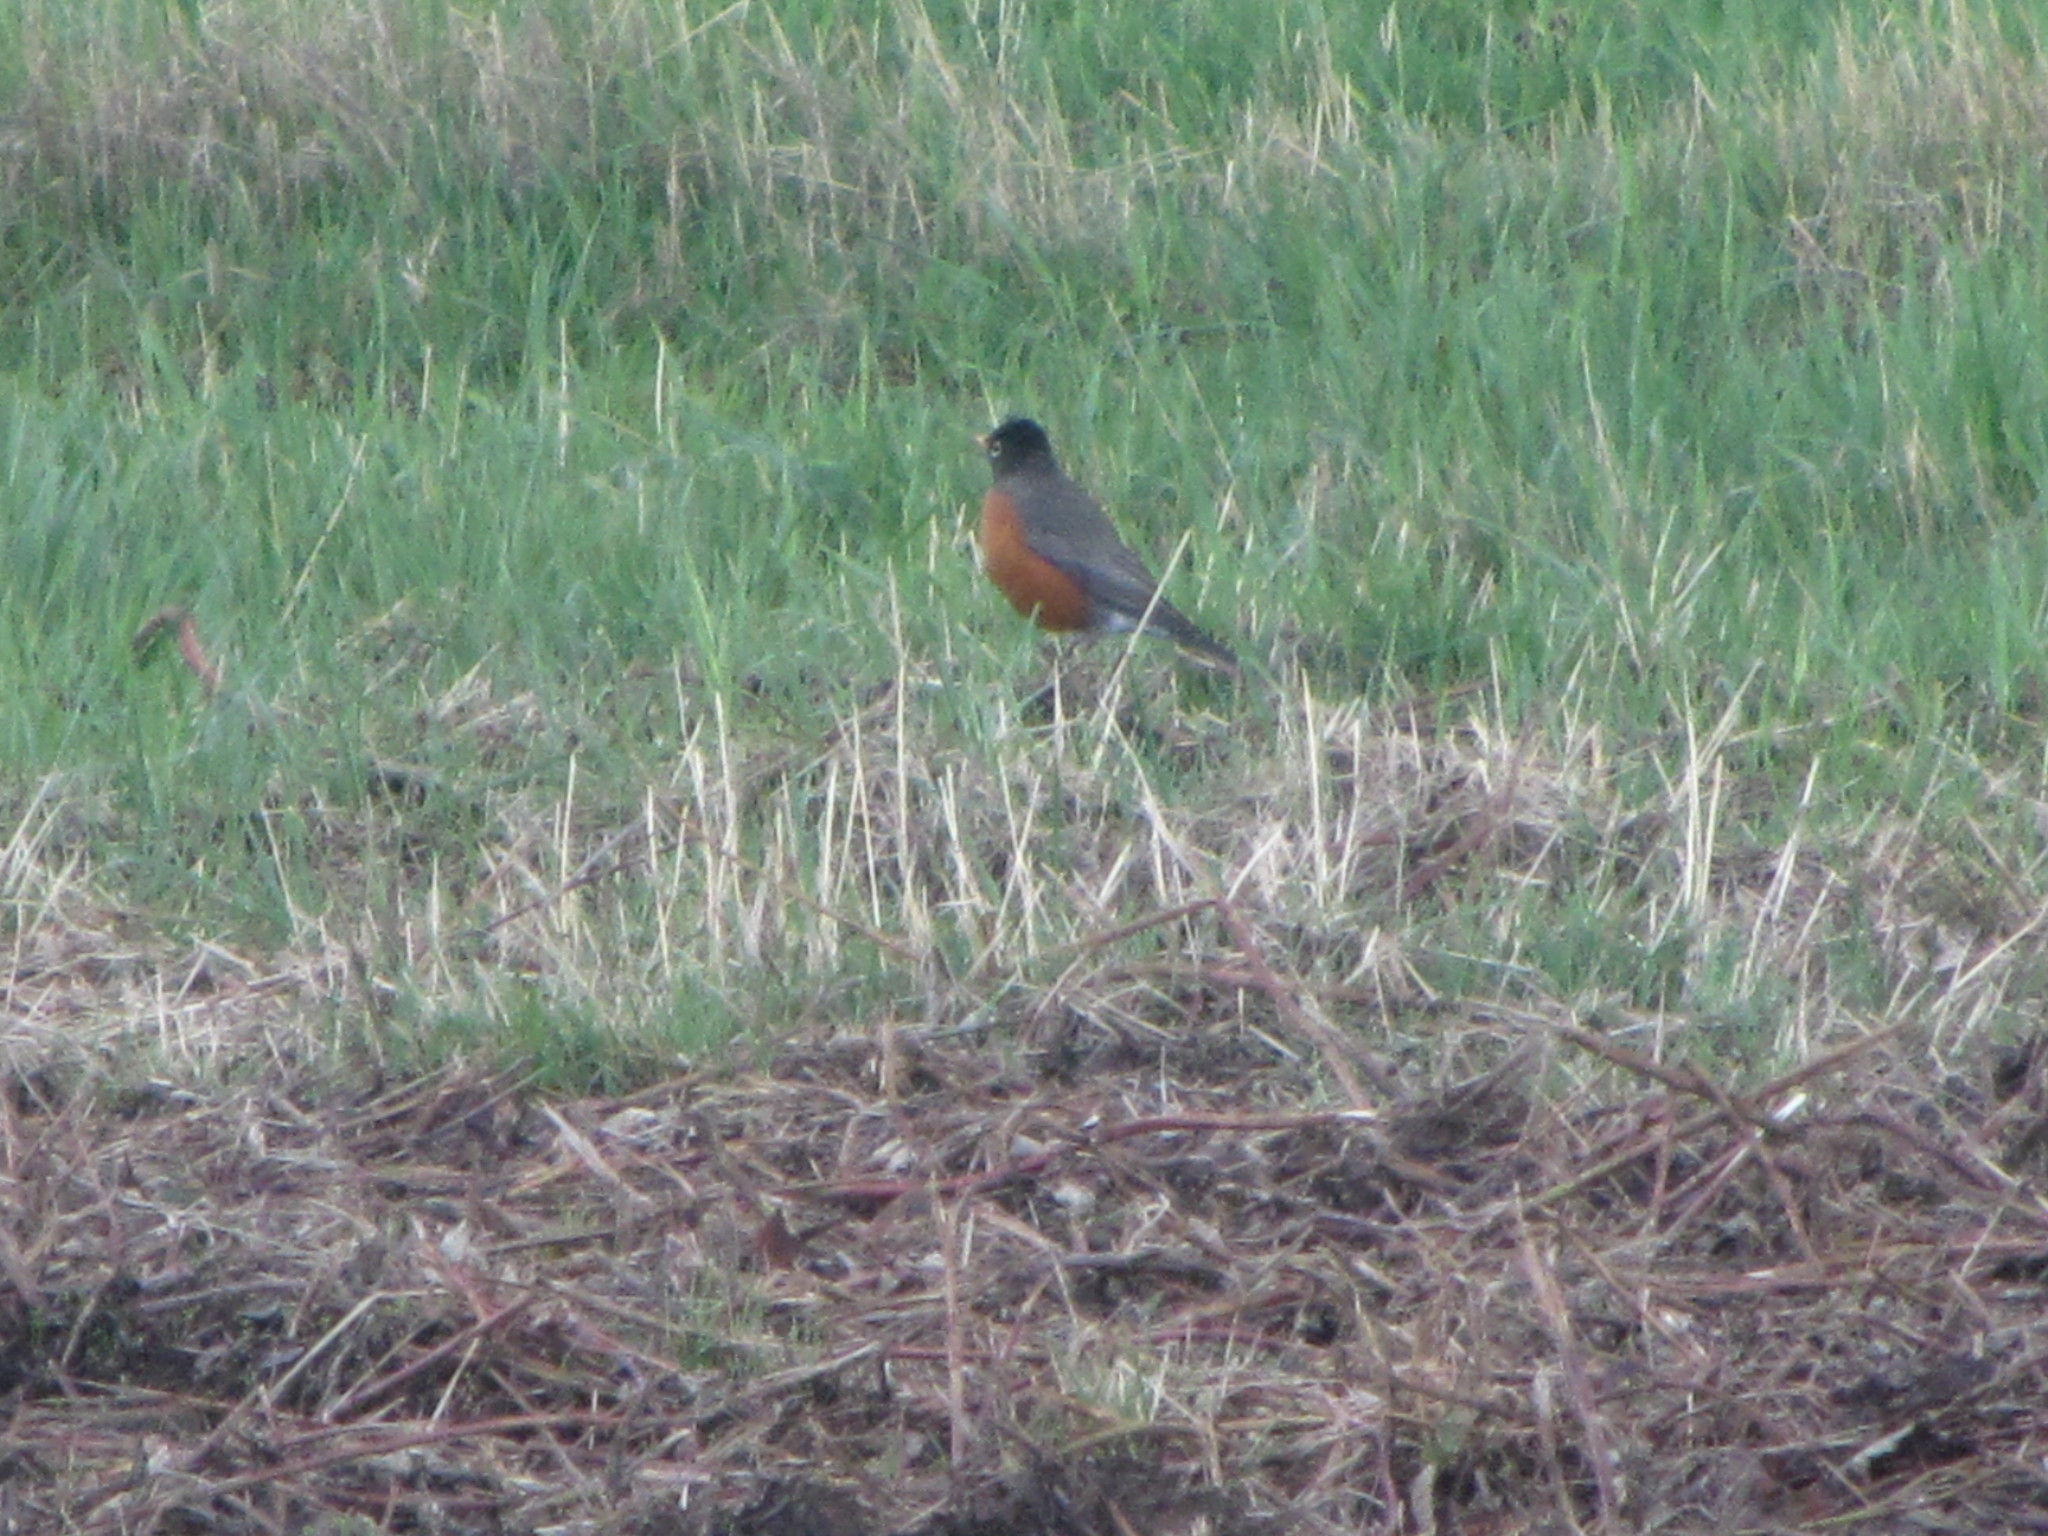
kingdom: Animalia
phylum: Chordata
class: Aves
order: Passeriformes
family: Turdidae
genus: Turdus
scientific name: Turdus migratorius
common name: American robin
